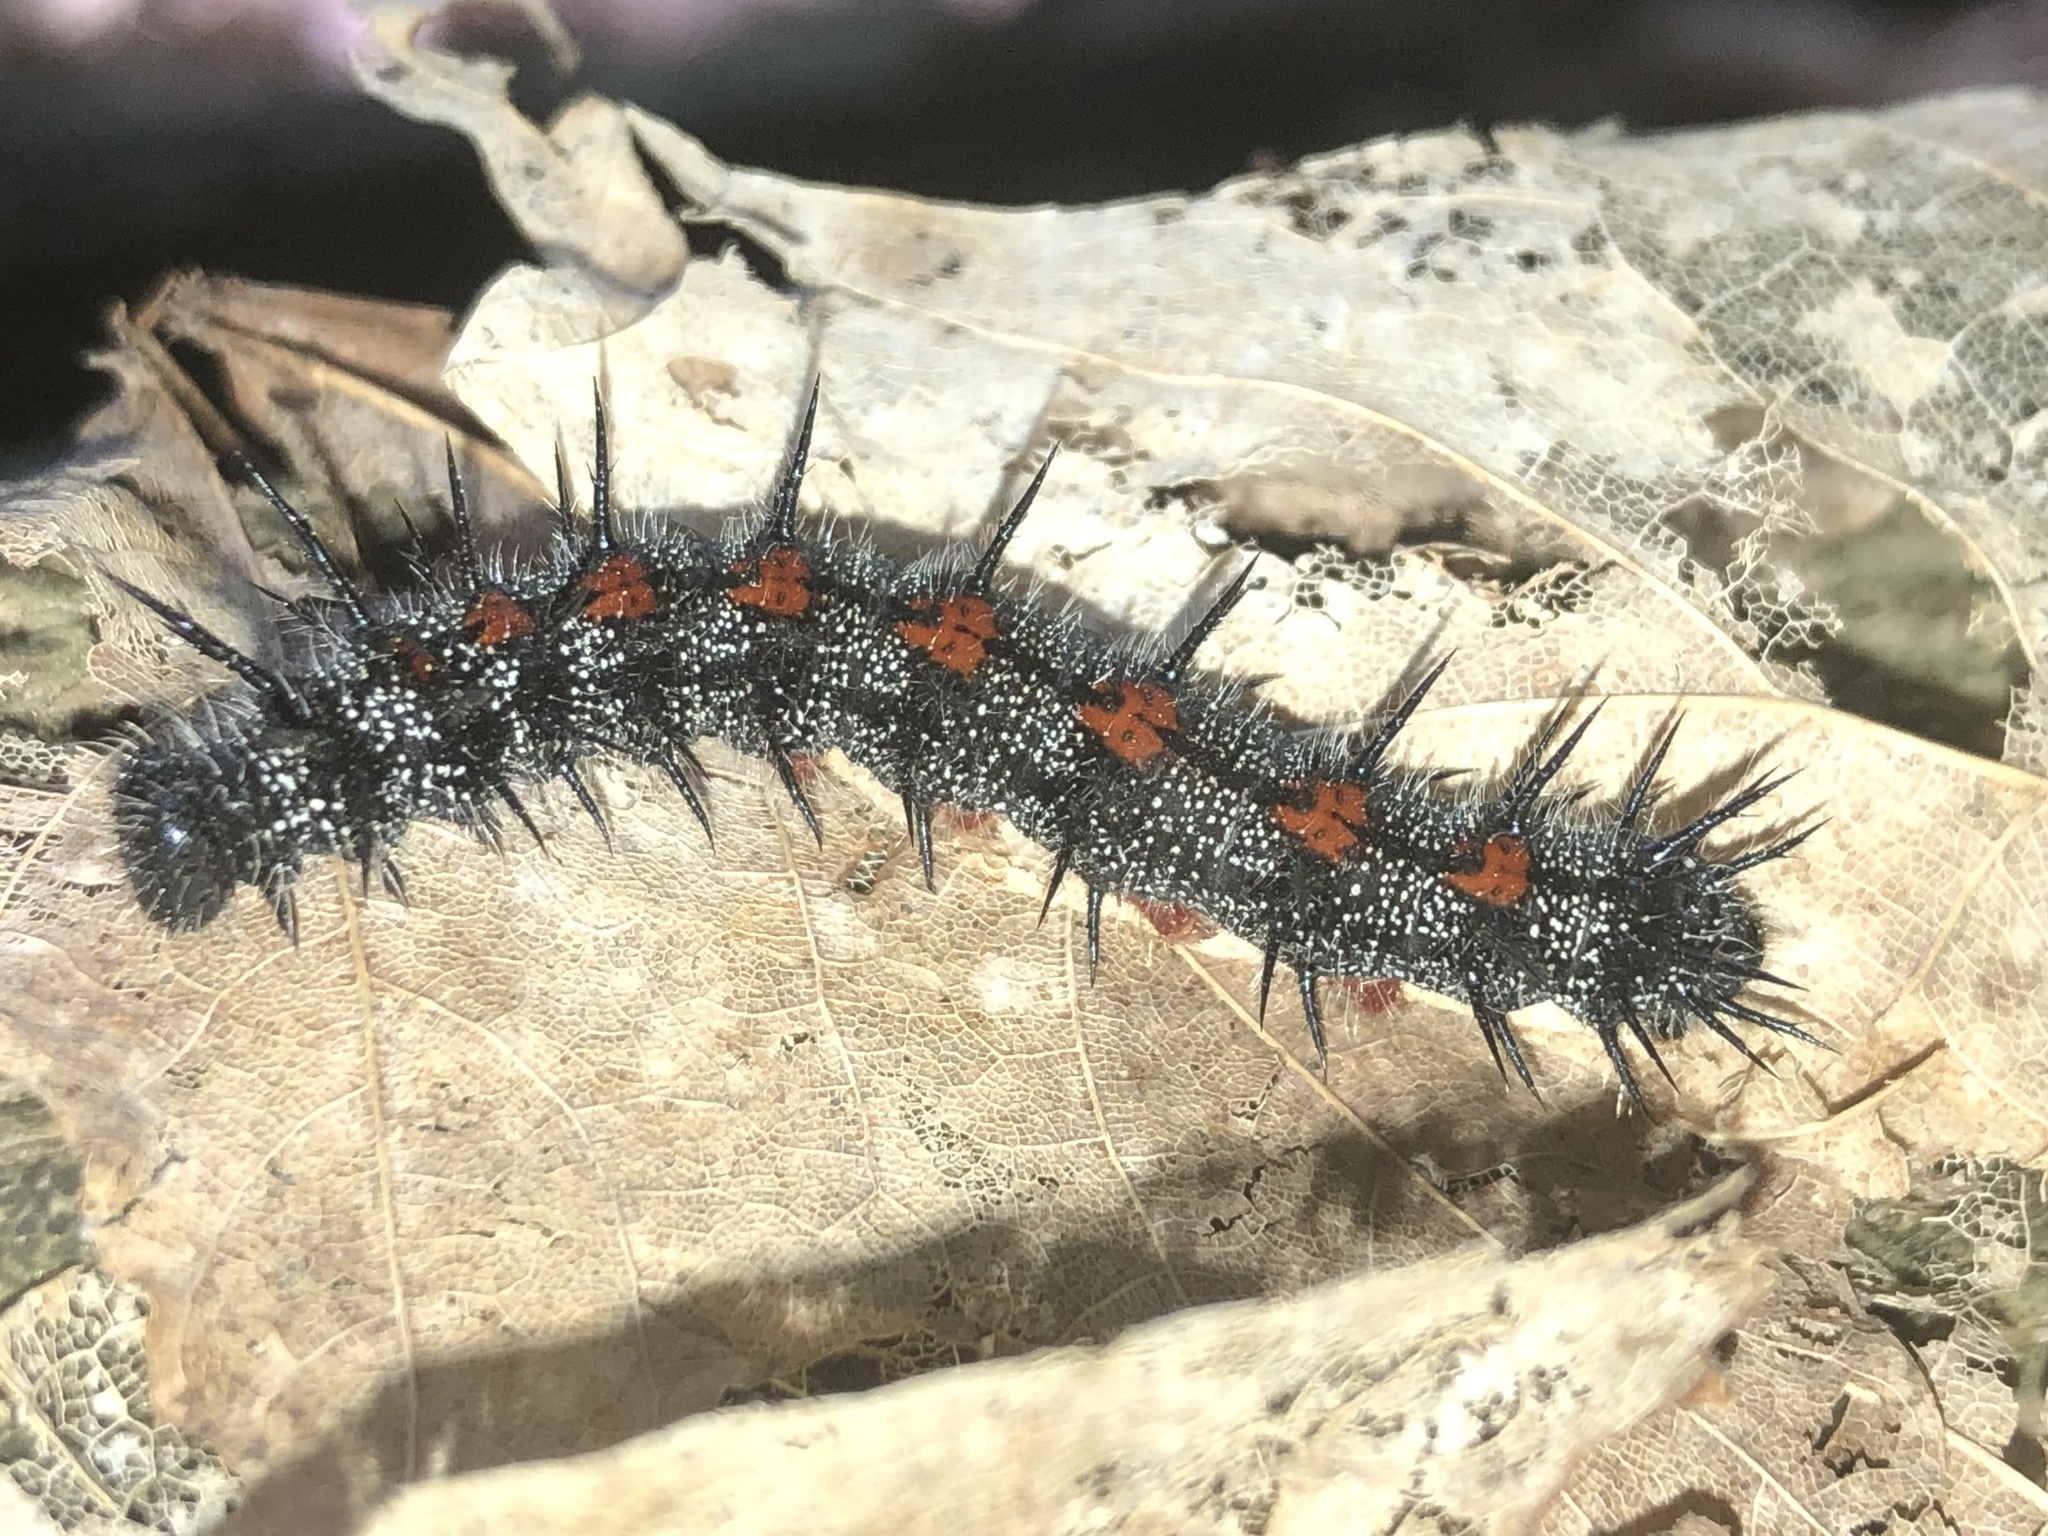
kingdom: Animalia
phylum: Arthropoda
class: Insecta
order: Lepidoptera
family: Nymphalidae
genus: Nymphalis
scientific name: Nymphalis antiopa
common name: Camberwell beauty
